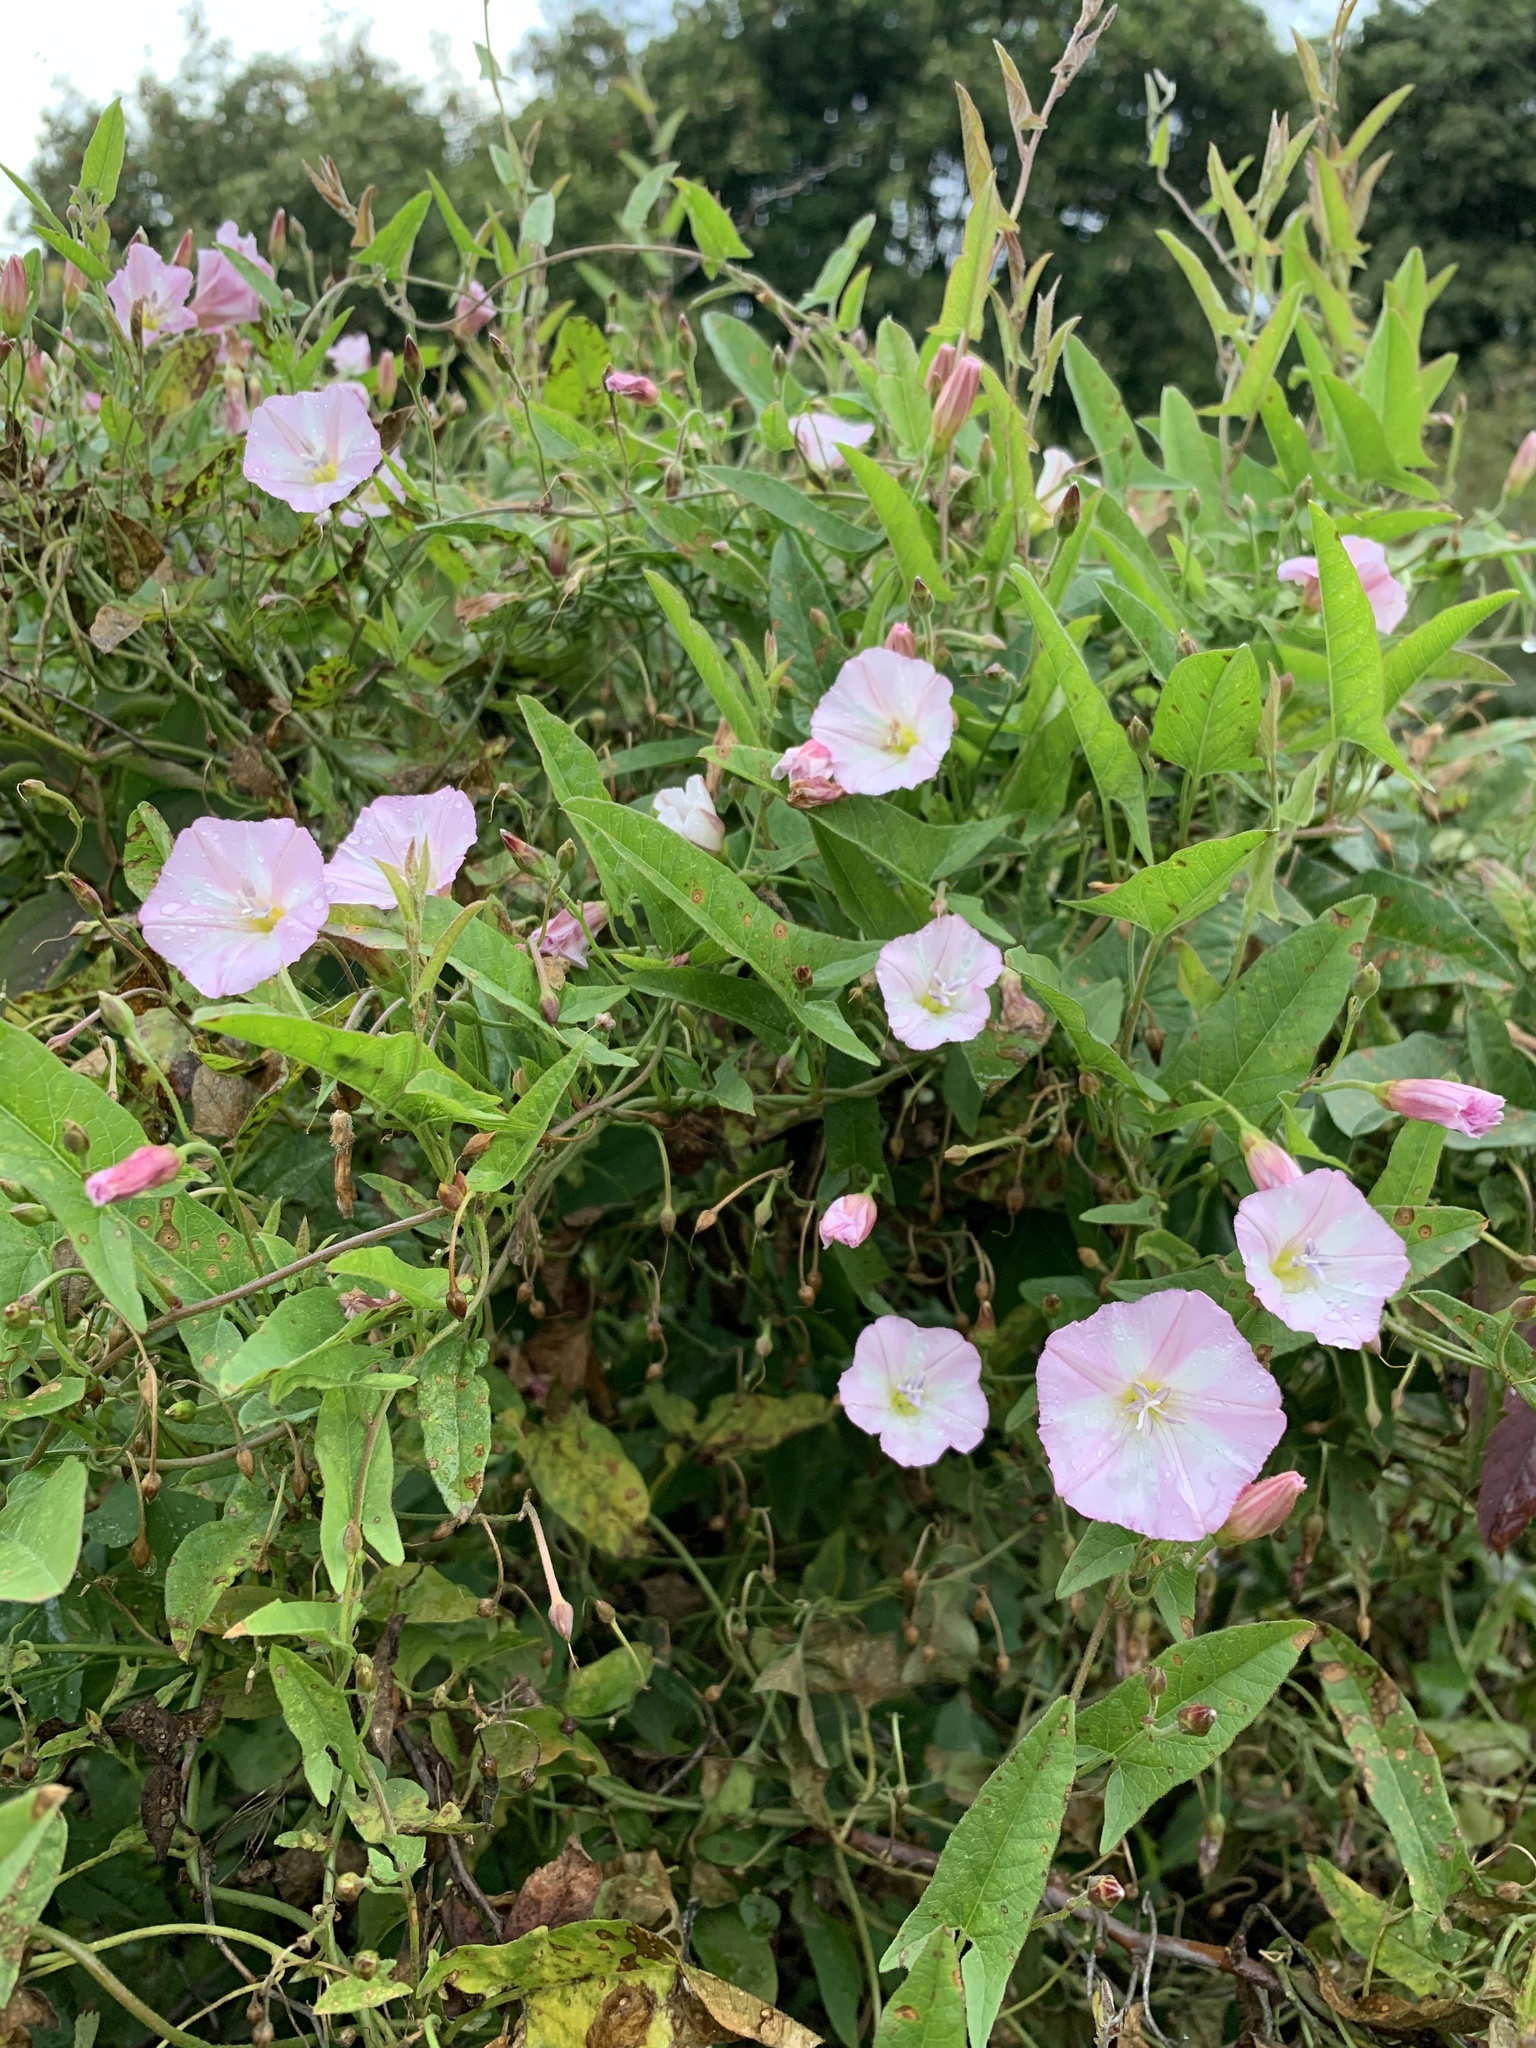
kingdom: Plantae
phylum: Tracheophyta
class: Magnoliopsida
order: Solanales
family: Convolvulaceae
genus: Convolvulus
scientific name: Convolvulus arvensis
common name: Field bindweed
